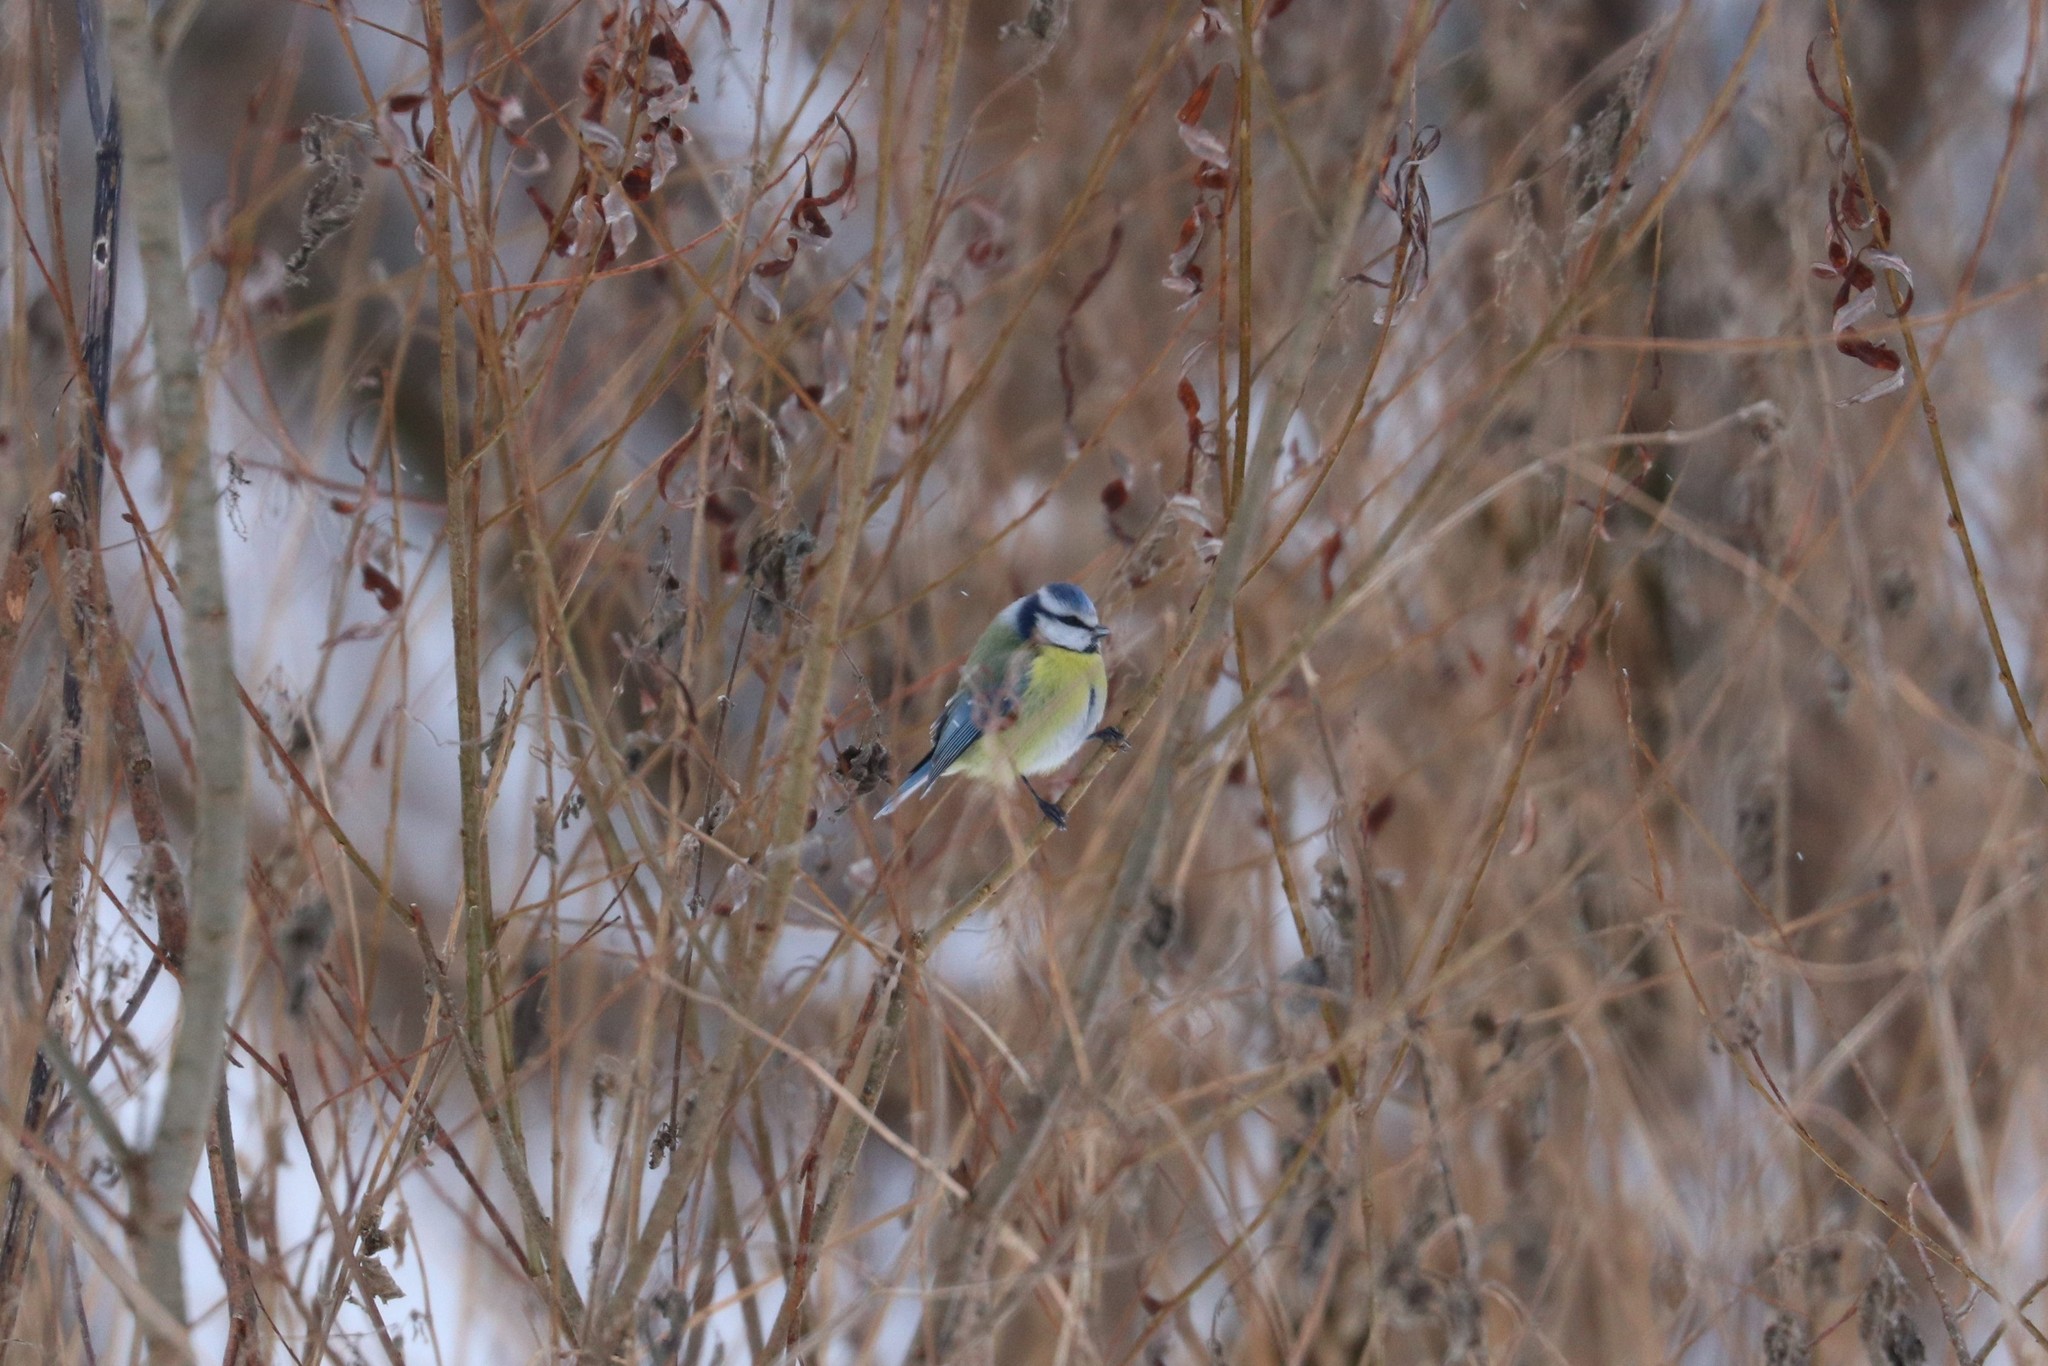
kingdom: Animalia
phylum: Chordata
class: Aves
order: Passeriformes
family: Paridae
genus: Cyanistes
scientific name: Cyanistes caeruleus
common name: Eurasian blue tit
